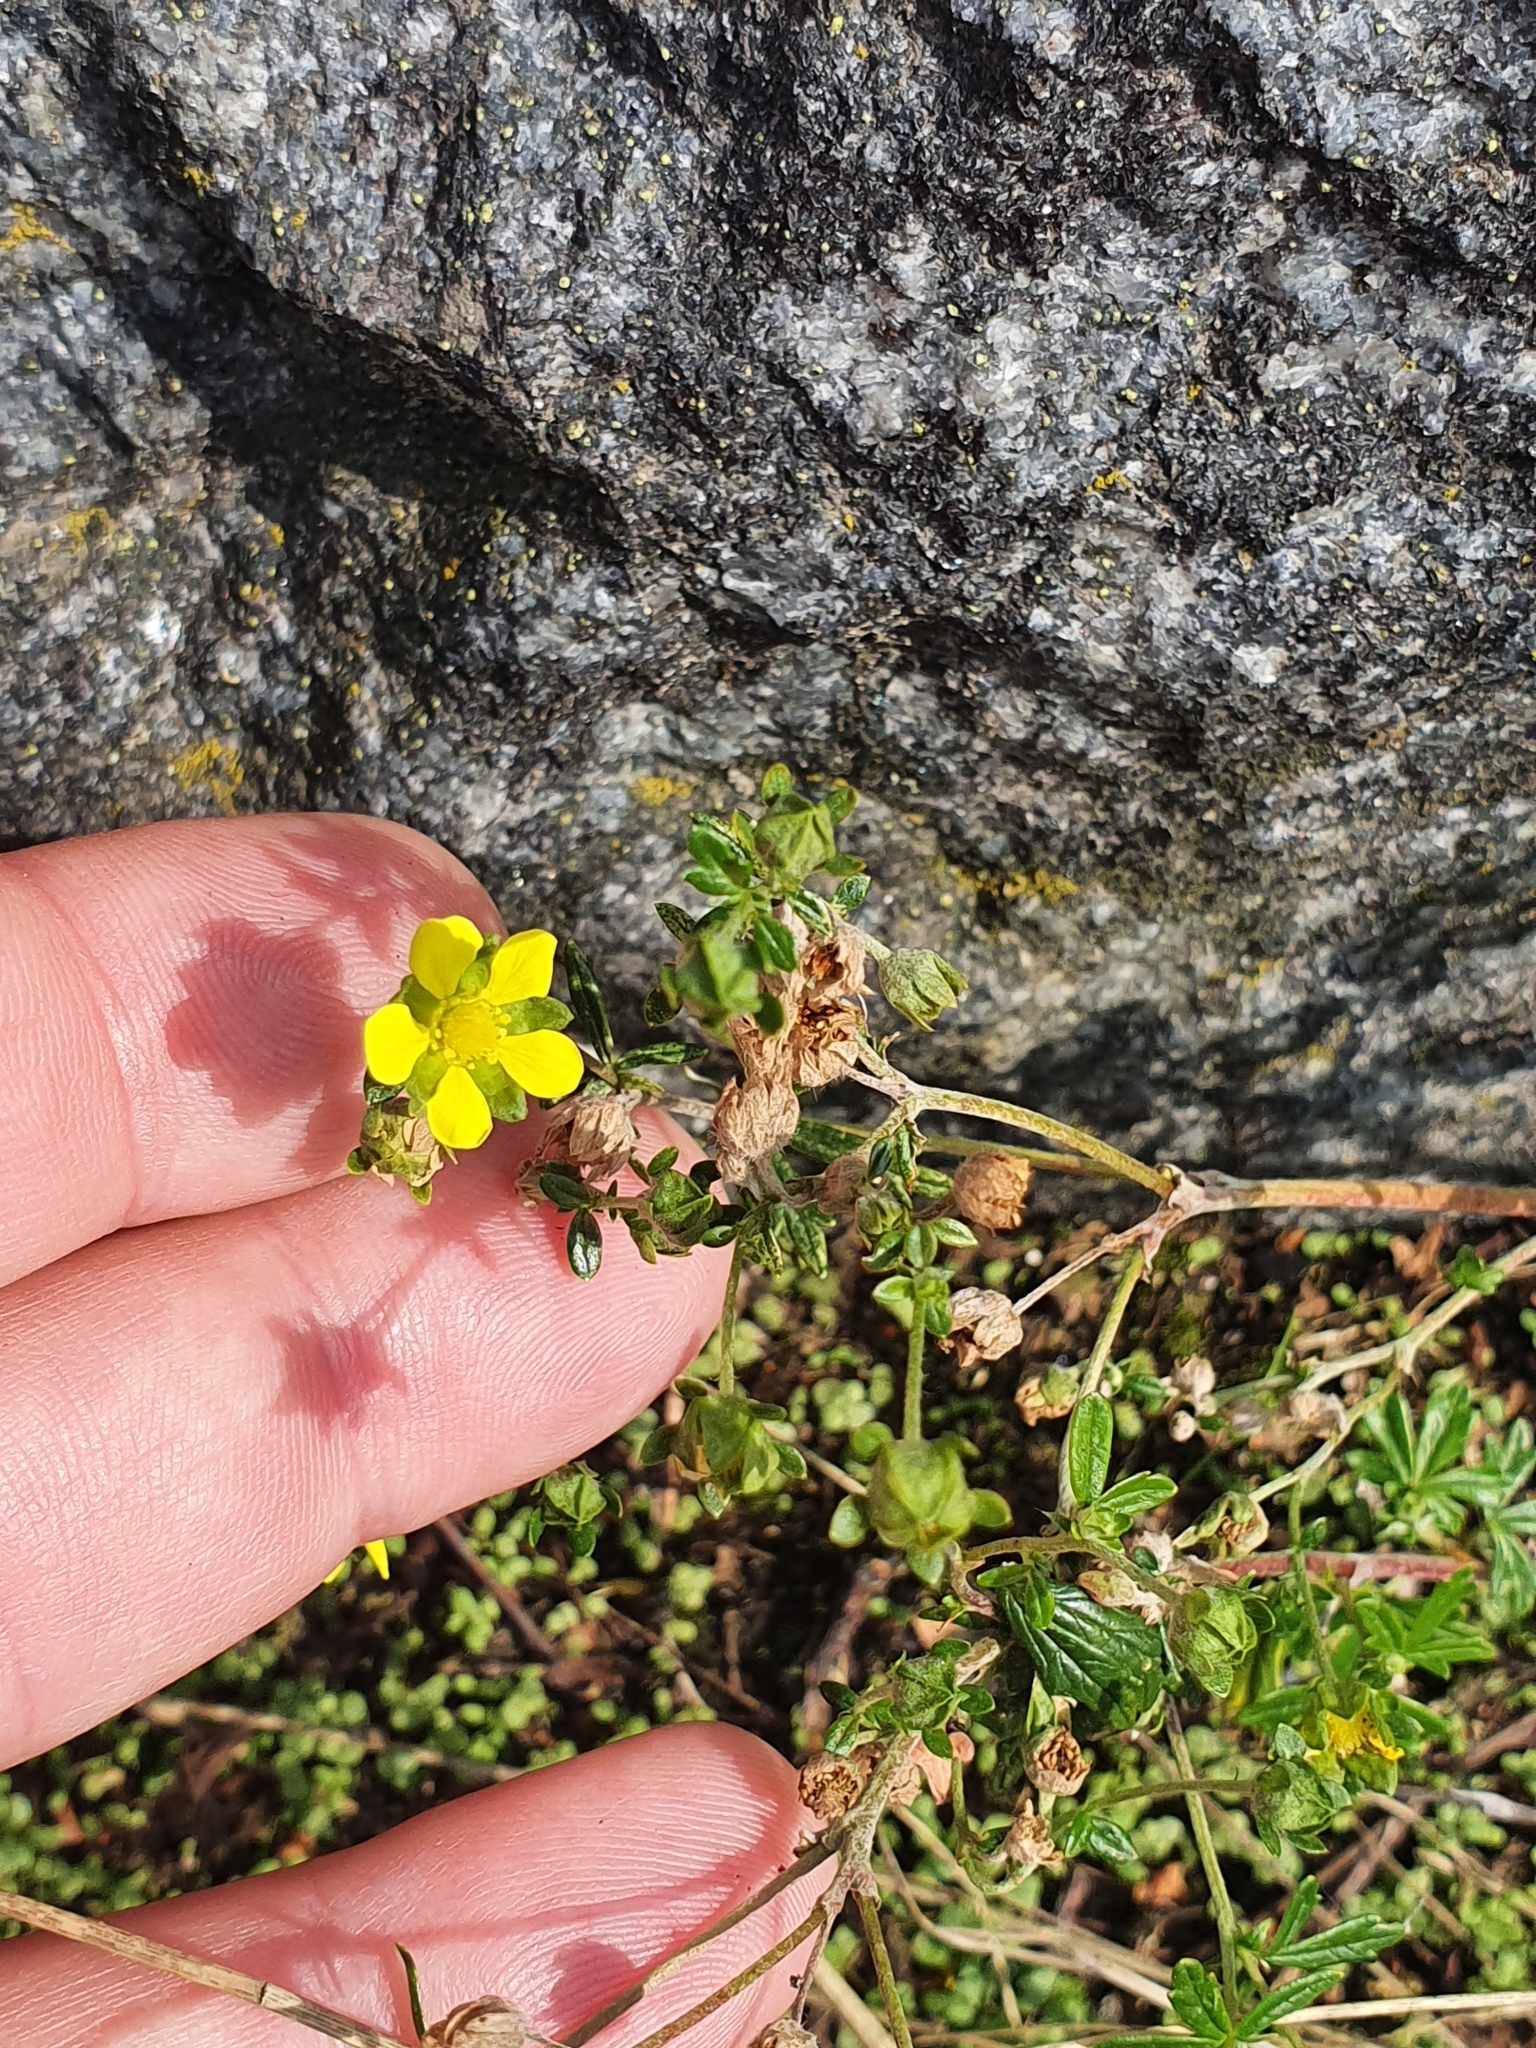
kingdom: Plantae
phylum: Tracheophyta
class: Magnoliopsida
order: Rosales
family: Rosaceae
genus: Potentilla
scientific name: Potentilla argentea
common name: Hoary cinquefoil
